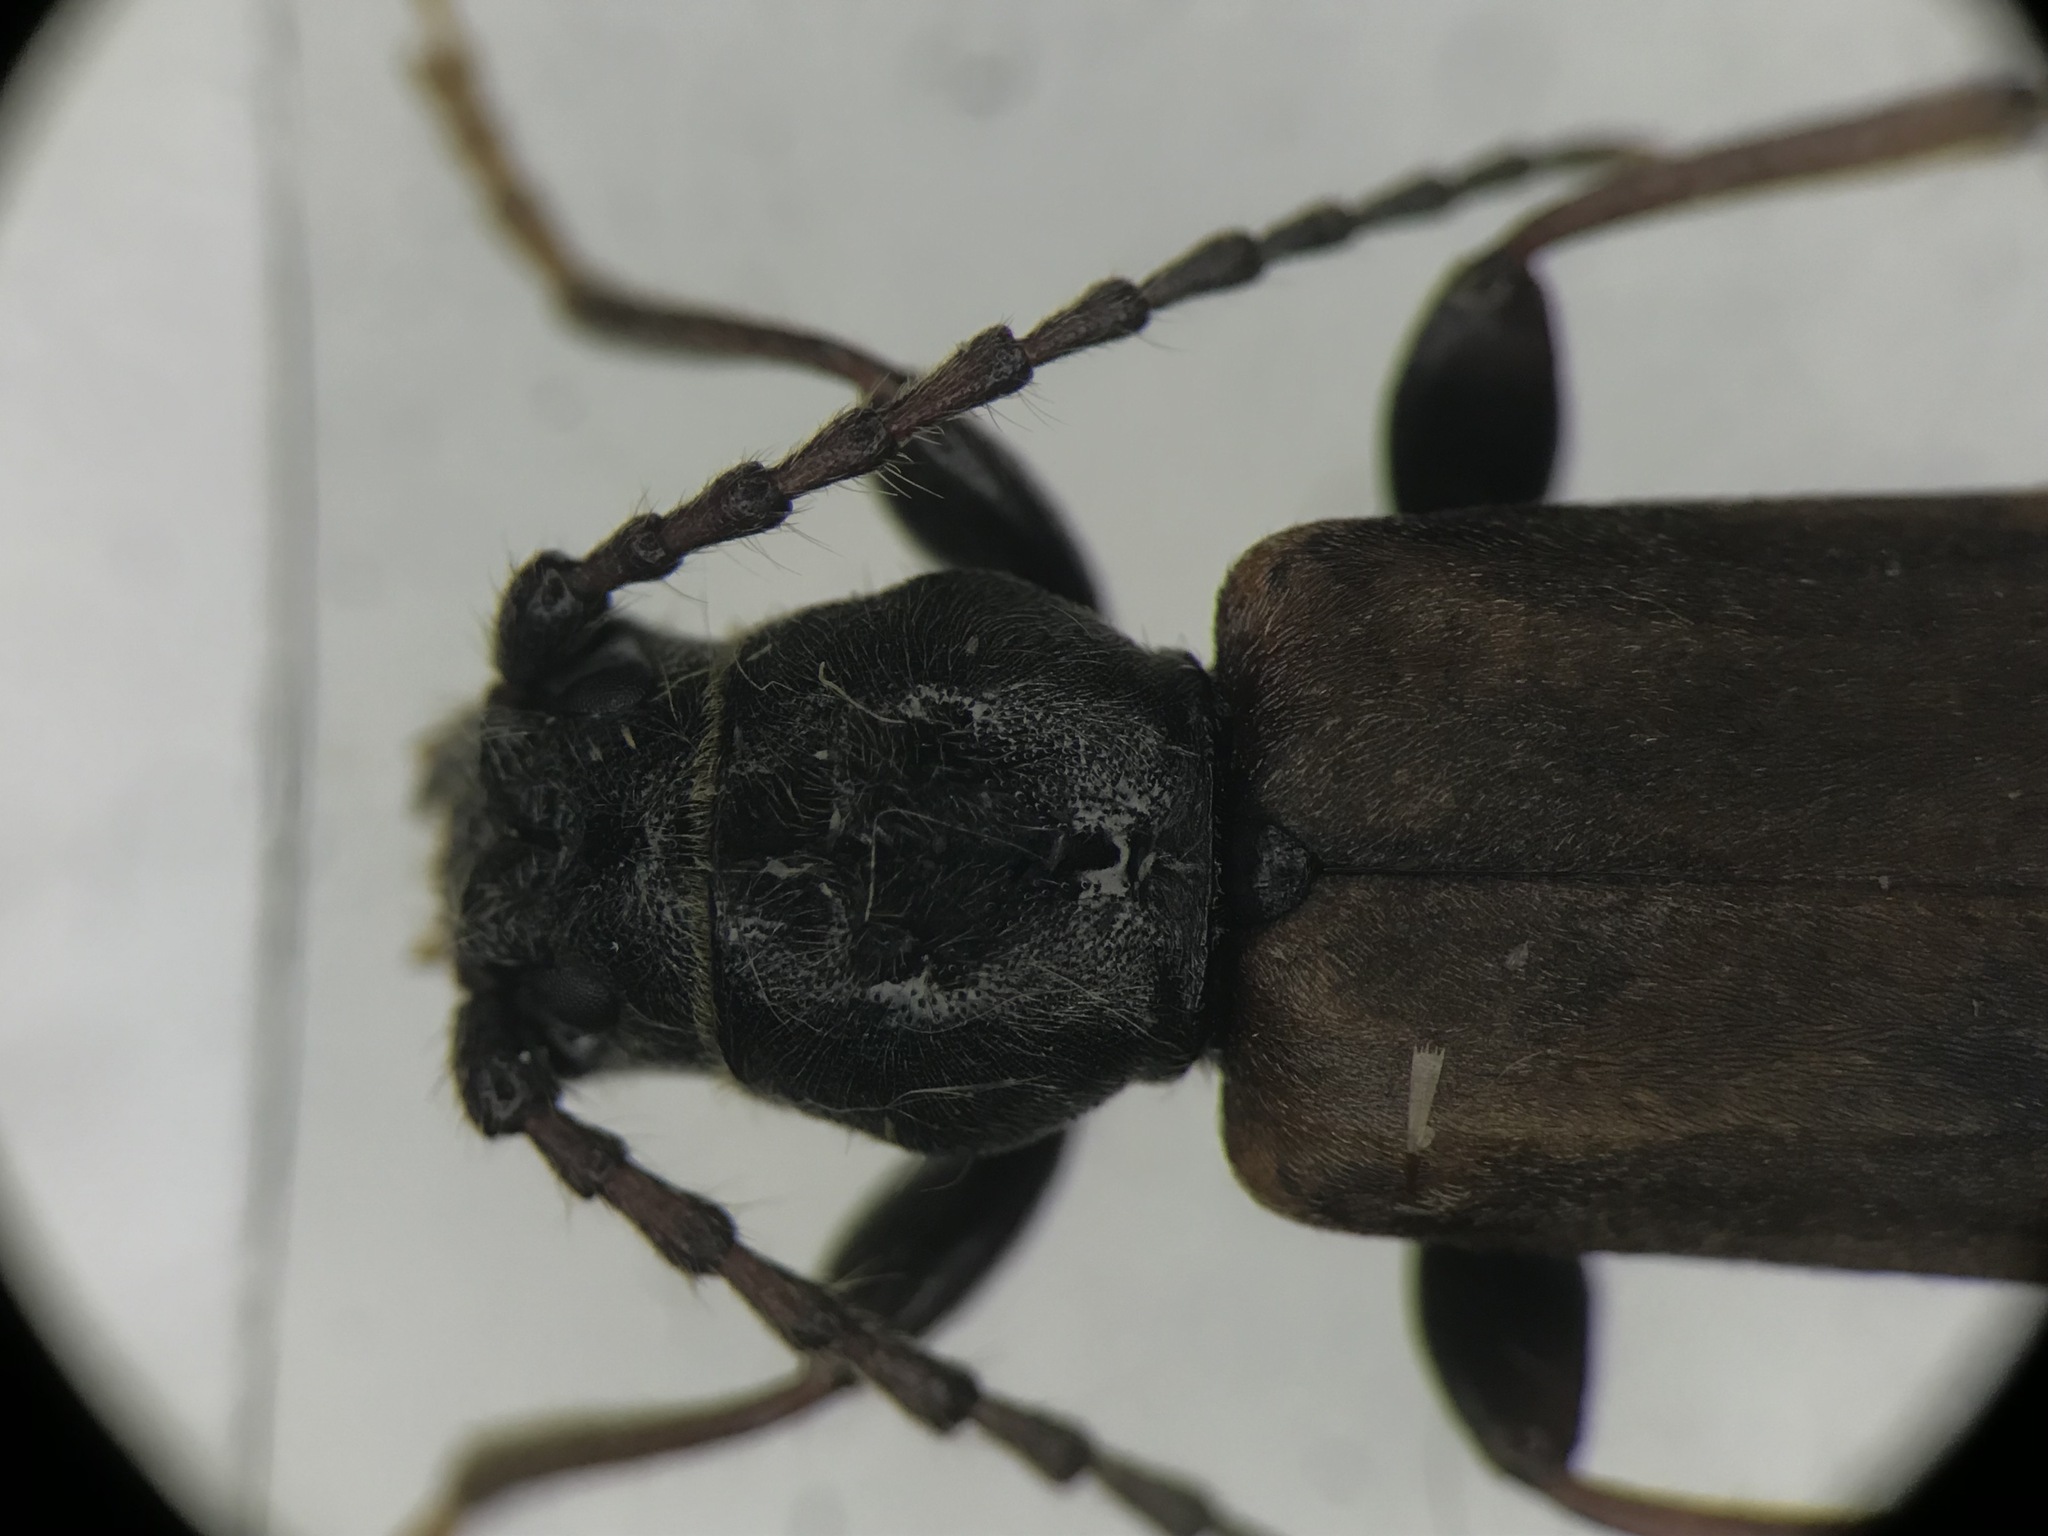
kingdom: Animalia
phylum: Arthropoda
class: Insecta
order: Coleoptera
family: Cerambycidae
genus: Tetropium
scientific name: Tetropium cinnamopterum
